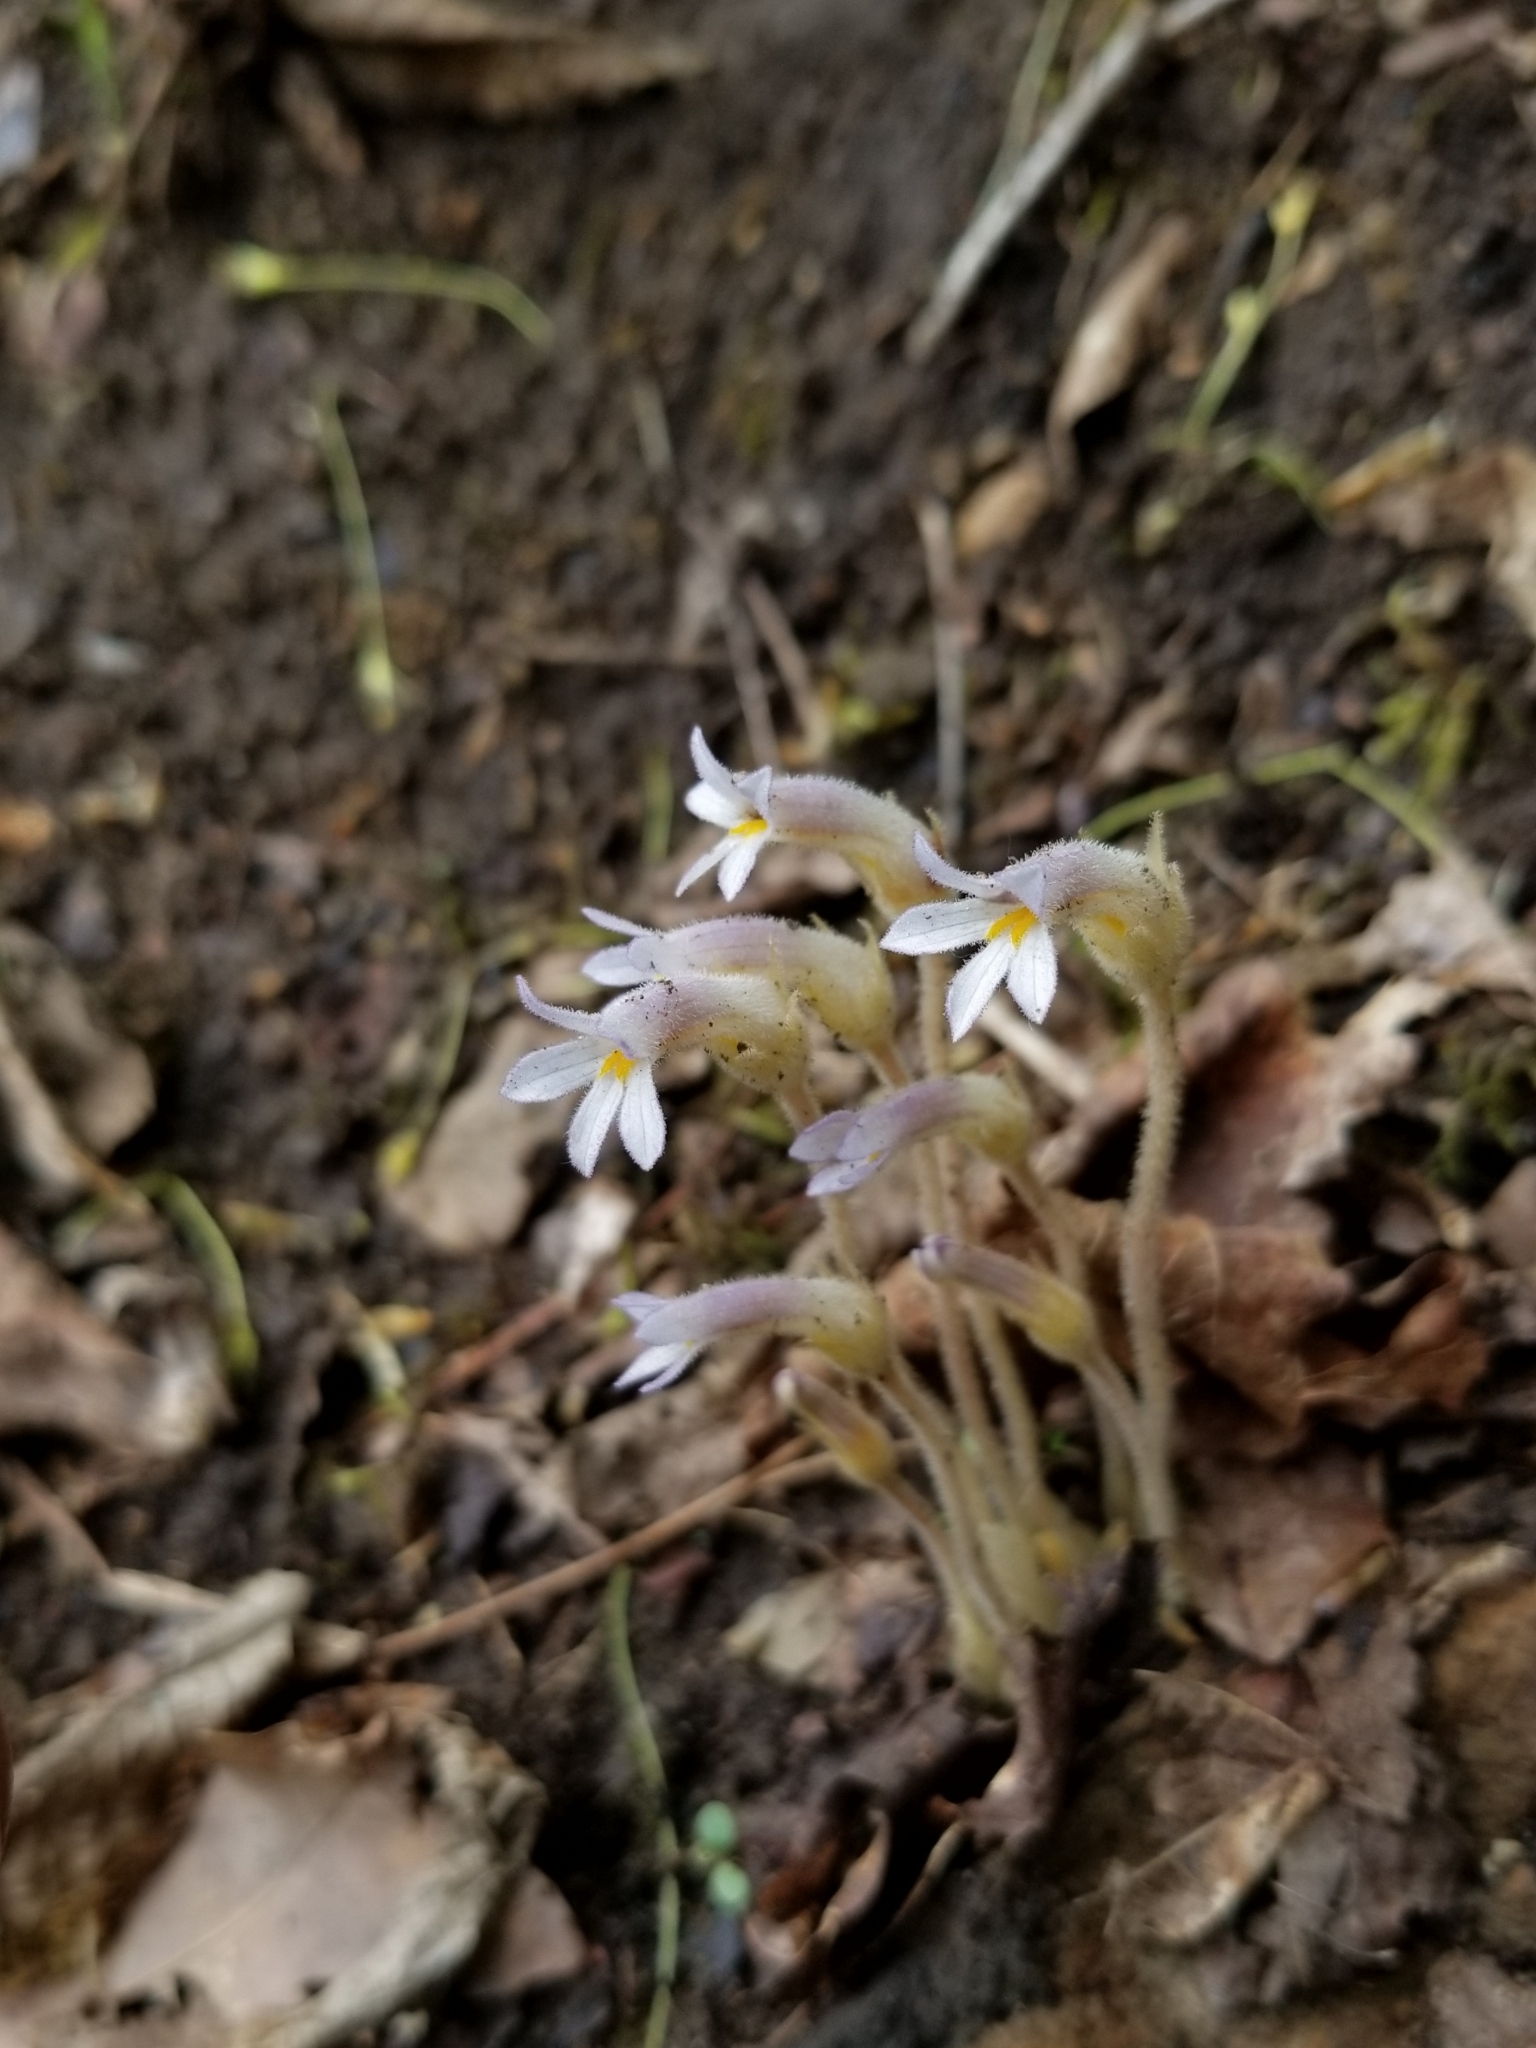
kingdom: Plantae
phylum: Tracheophyta
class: Magnoliopsida
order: Lamiales
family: Orobanchaceae
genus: Aphyllon
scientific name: Aphyllon uniflorum
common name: One-flowered broomrape
